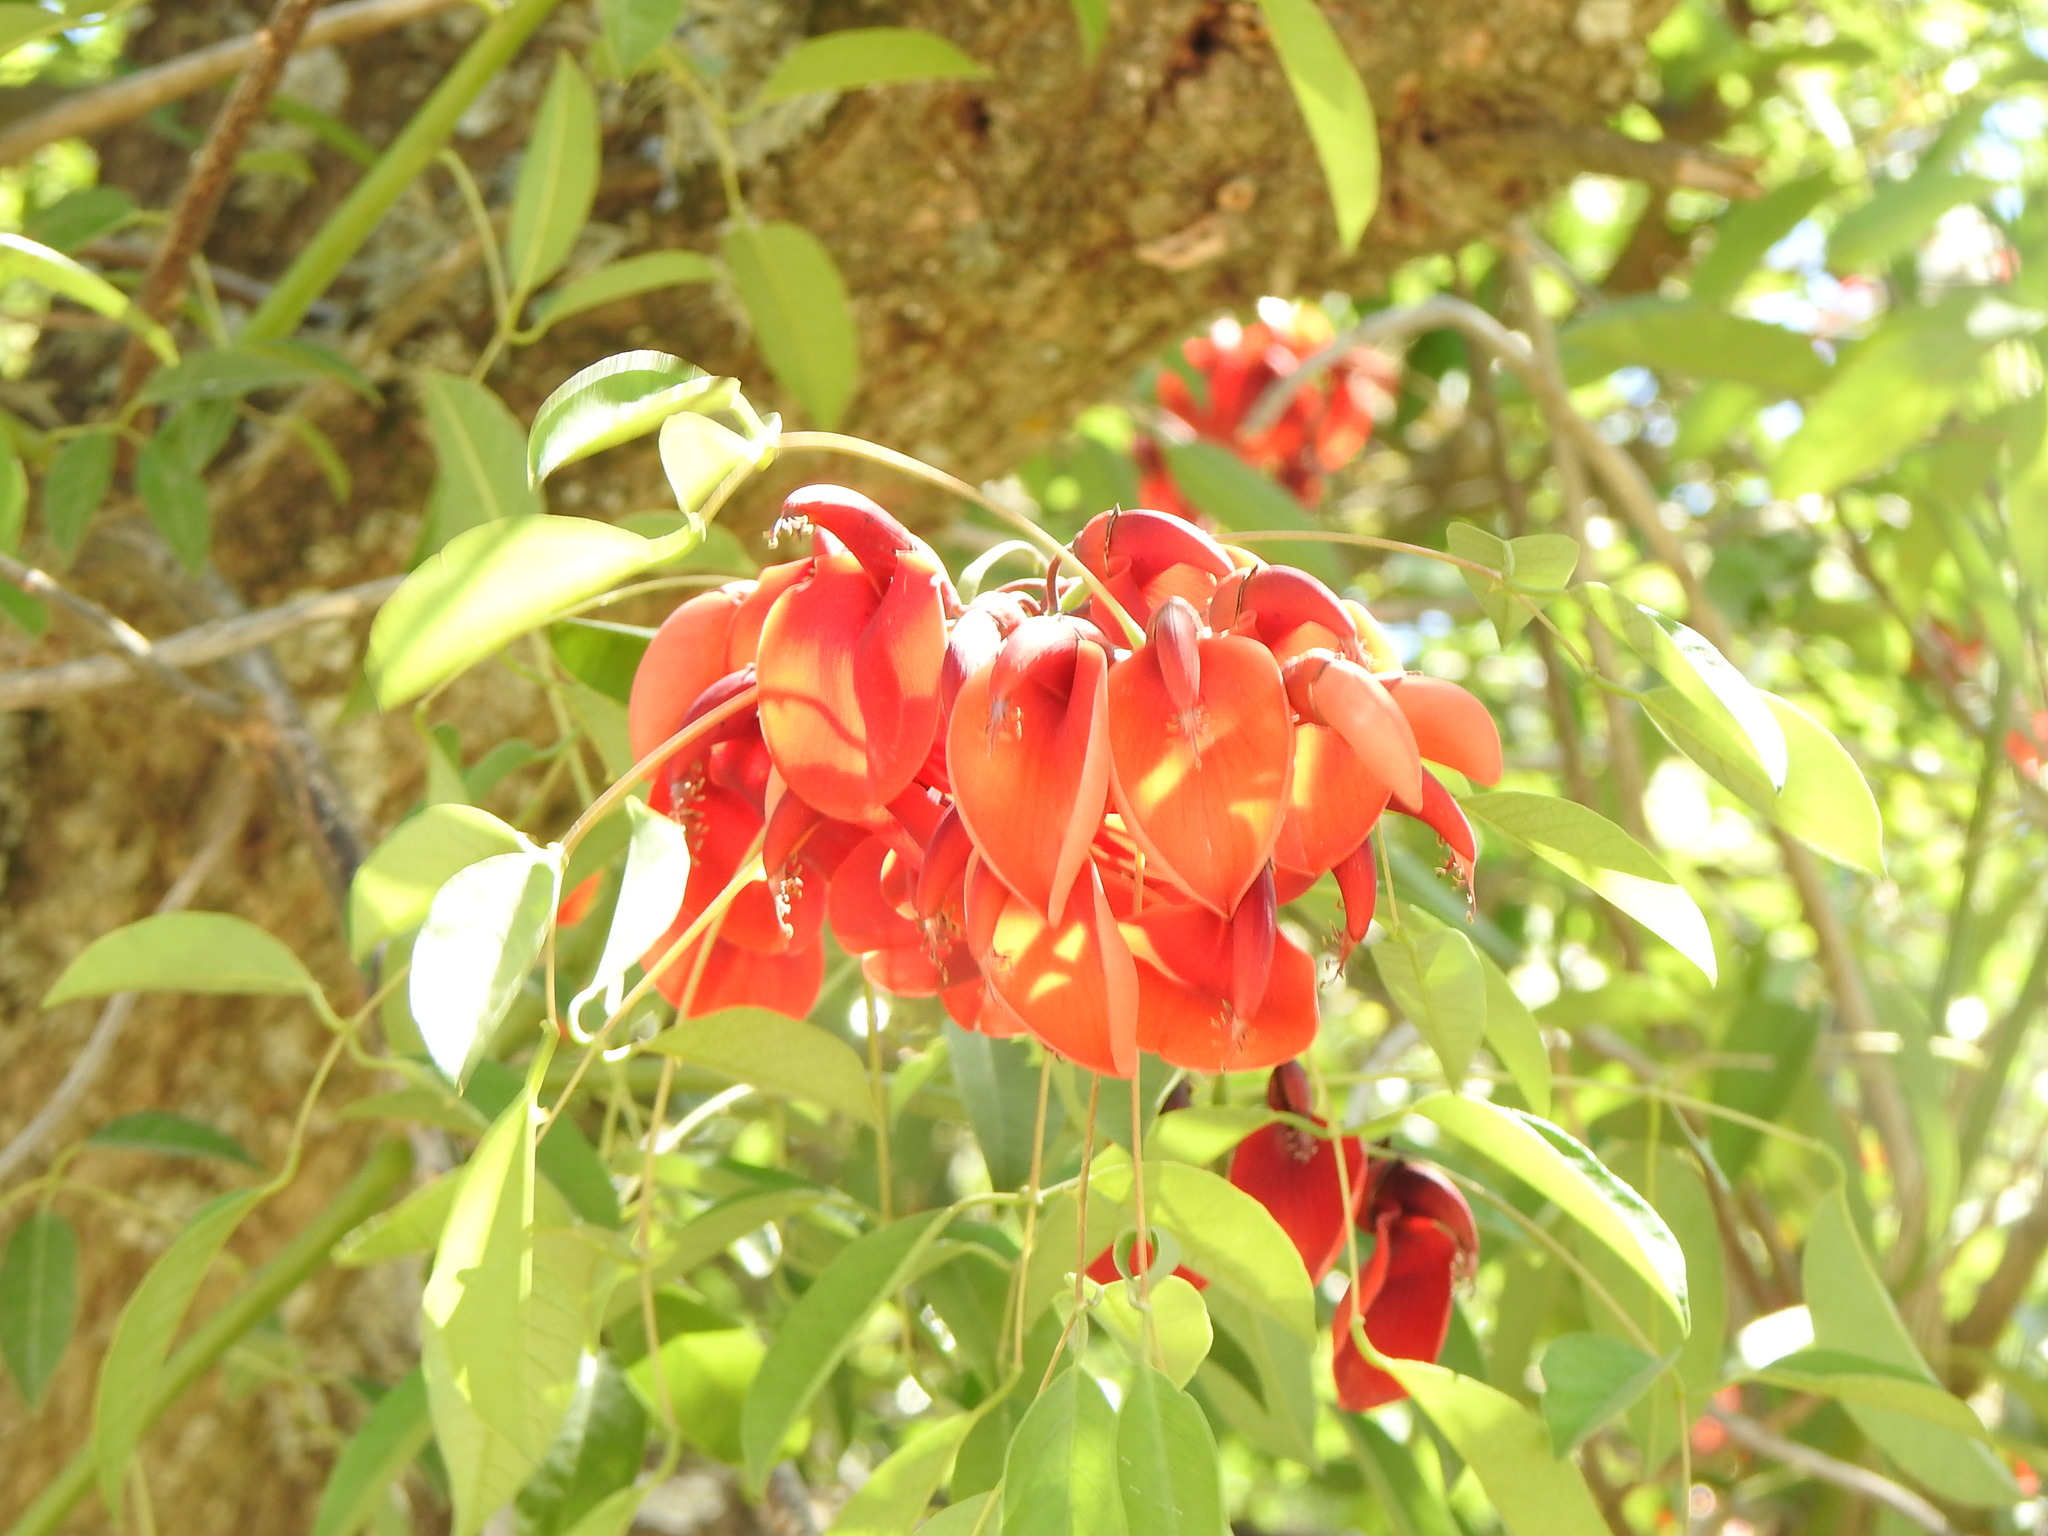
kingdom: Plantae
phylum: Tracheophyta
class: Magnoliopsida
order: Fabales
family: Fabaceae
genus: Erythrina
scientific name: Erythrina crista-galli
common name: Cockspur coral tree
